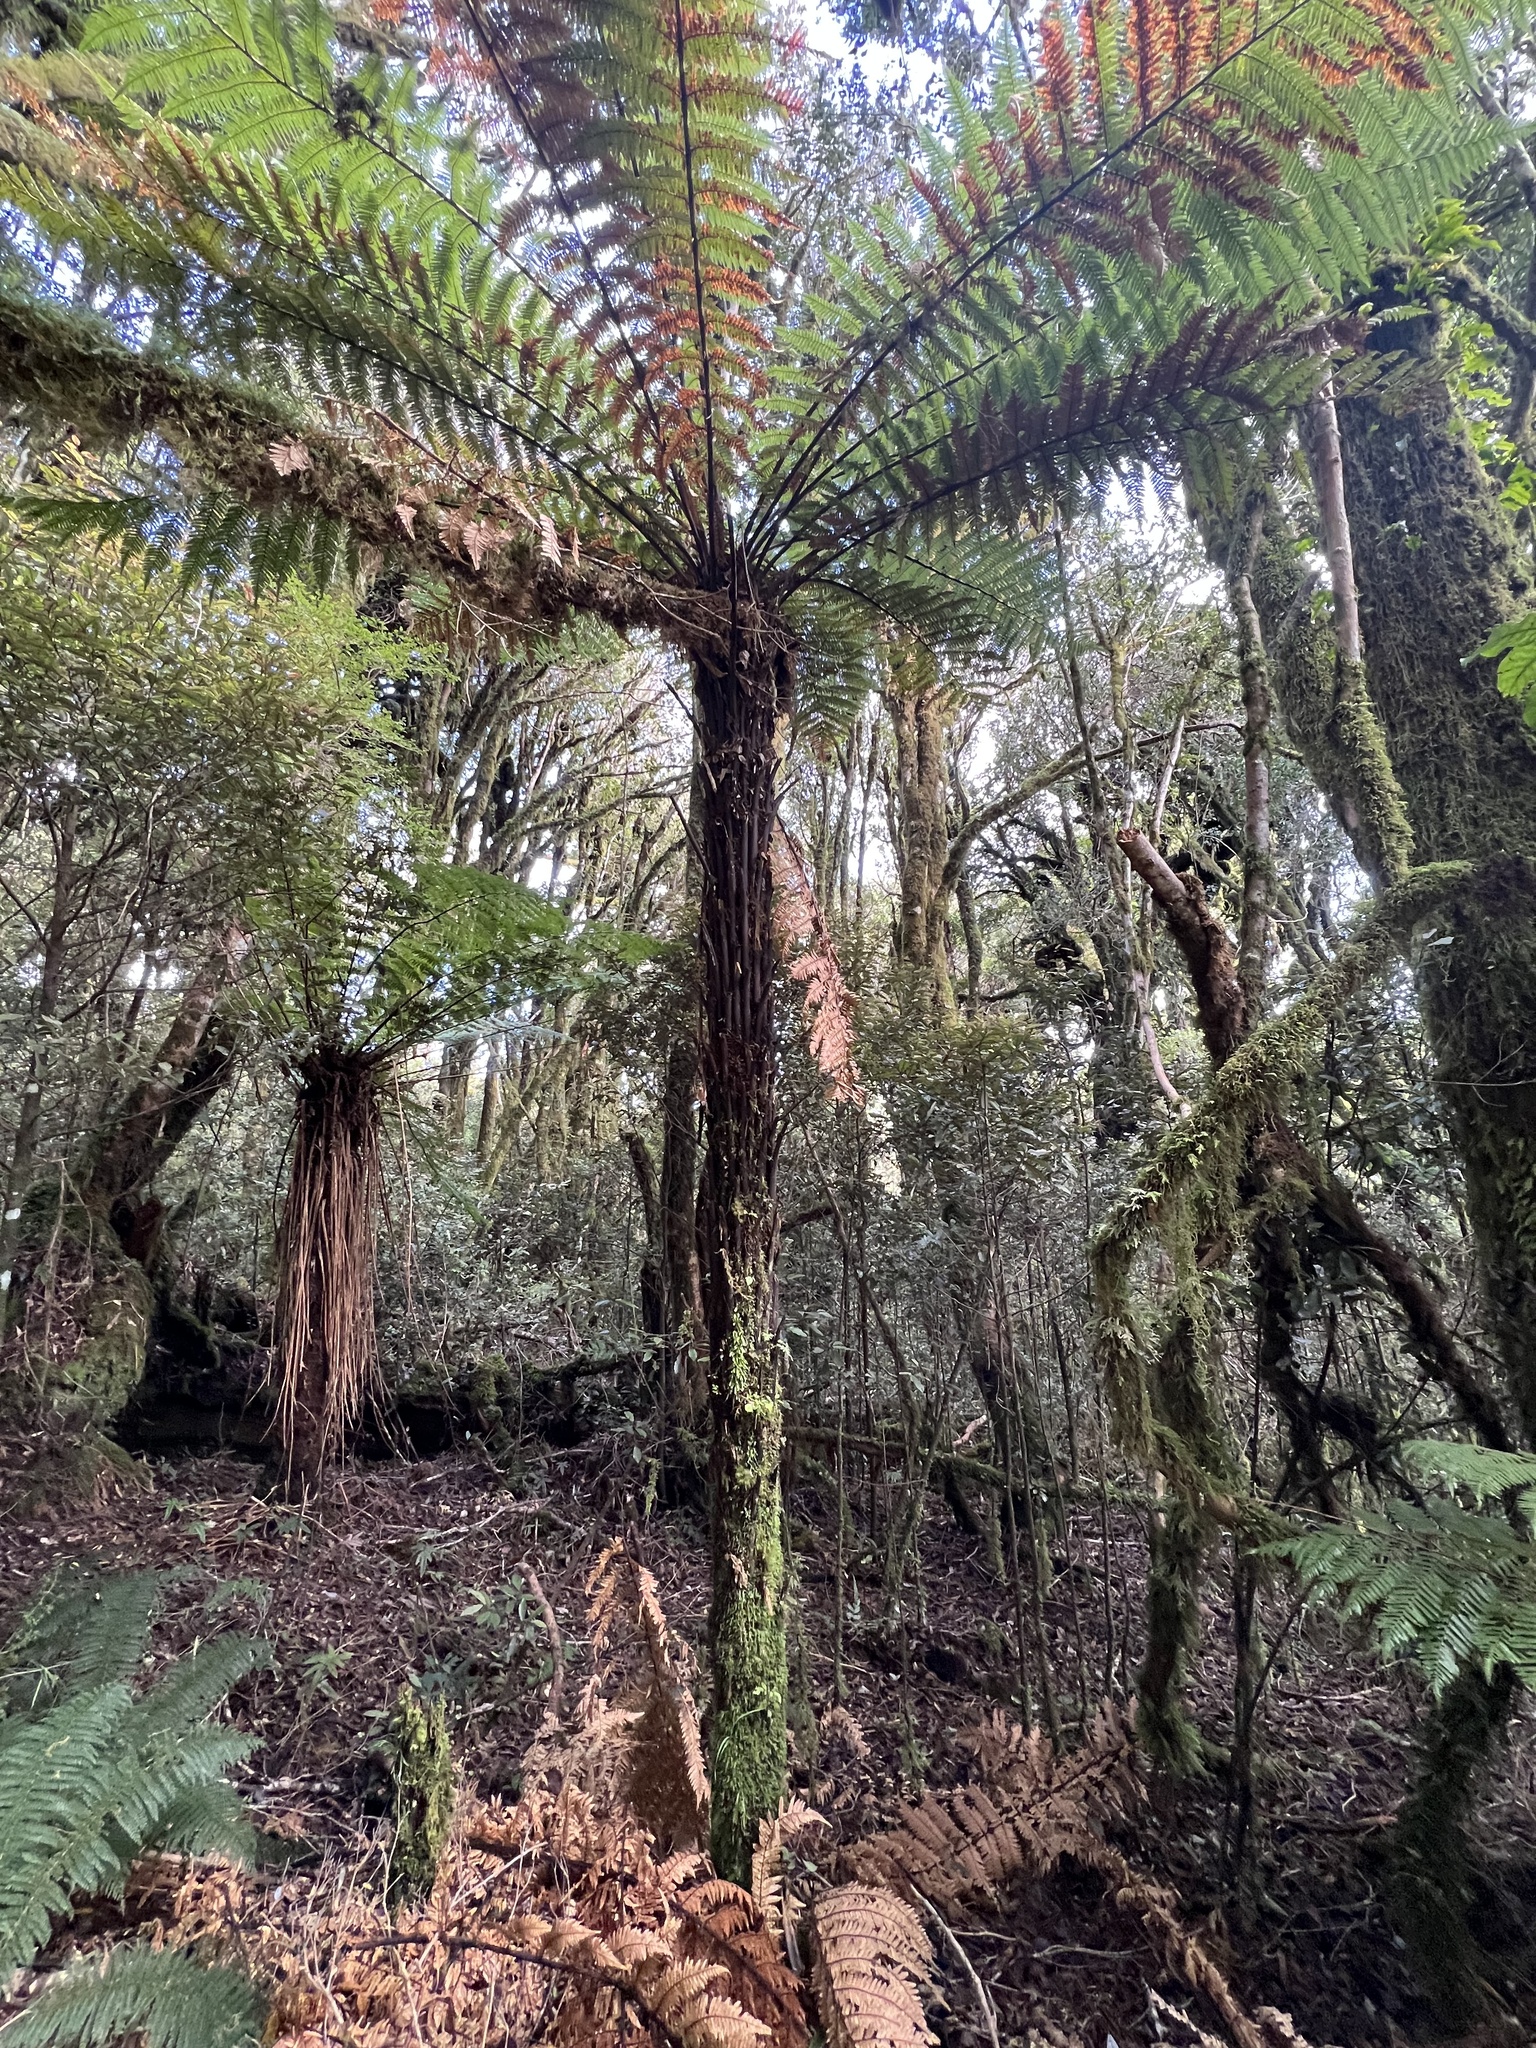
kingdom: Plantae
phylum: Tracheophyta
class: Polypodiopsida
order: Cyatheales
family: Dicksoniaceae
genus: Dicksonia
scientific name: Dicksonia squarrosa
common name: Hard treefern
